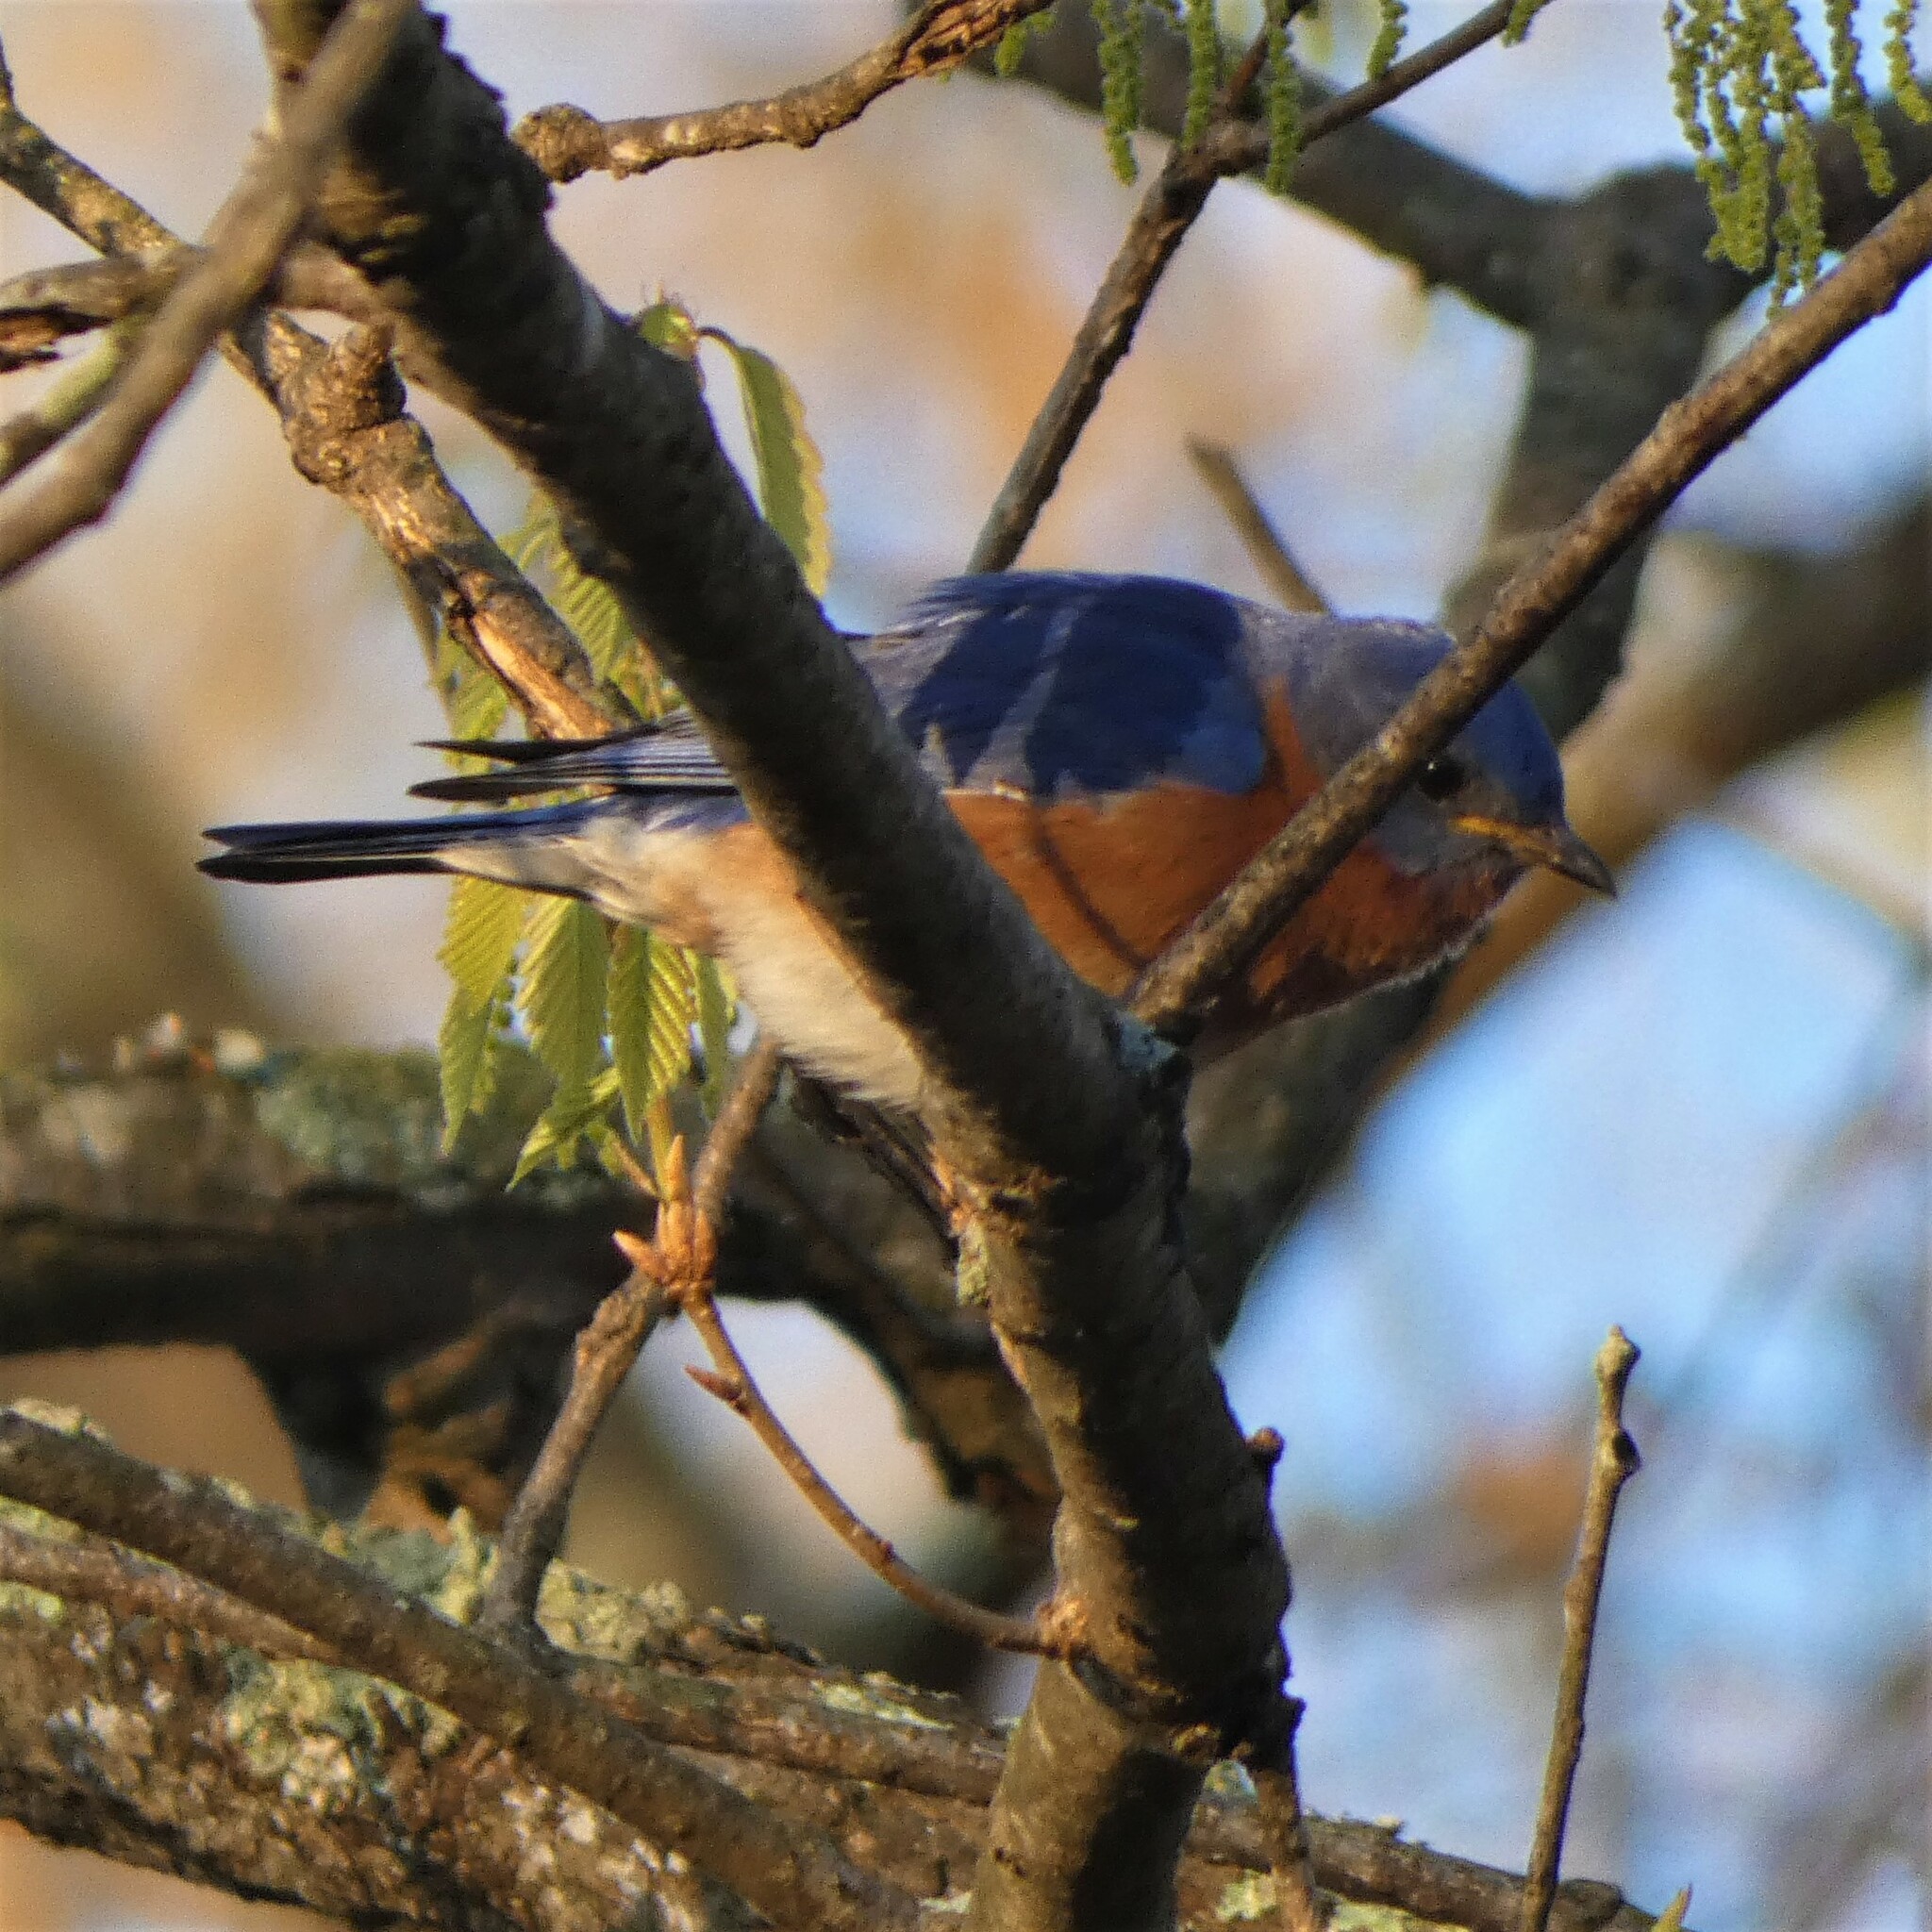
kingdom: Animalia
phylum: Chordata
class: Aves
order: Passeriformes
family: Turdidae
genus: Sialia
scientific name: Sialia sialis
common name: Eastern bluebird
